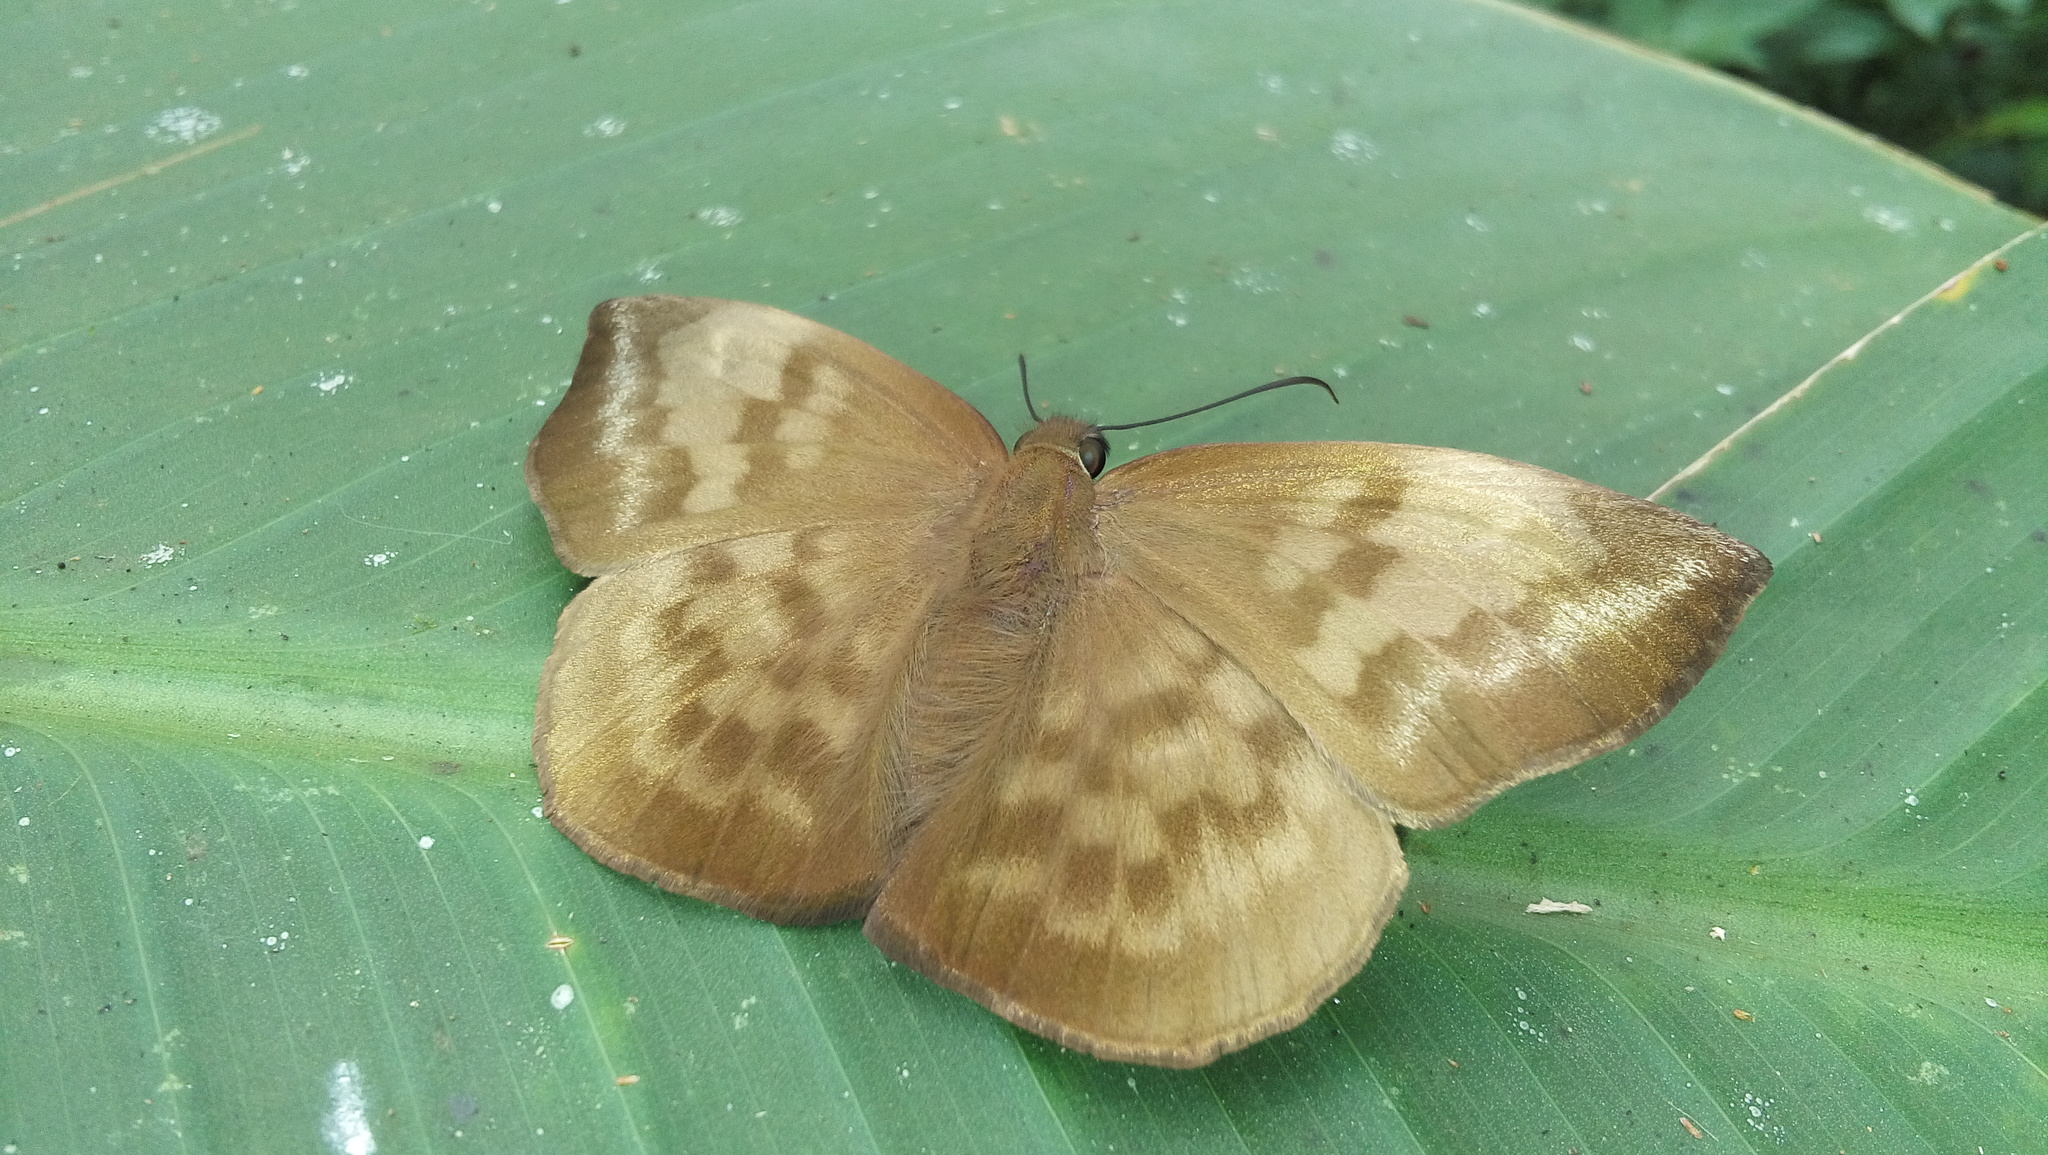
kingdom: Animalia
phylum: Arthropoda
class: Insecta
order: Lepidoptera
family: Hesperiidae
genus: Achlyodes
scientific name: Achlyodes pallida
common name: Pale sicklewing
